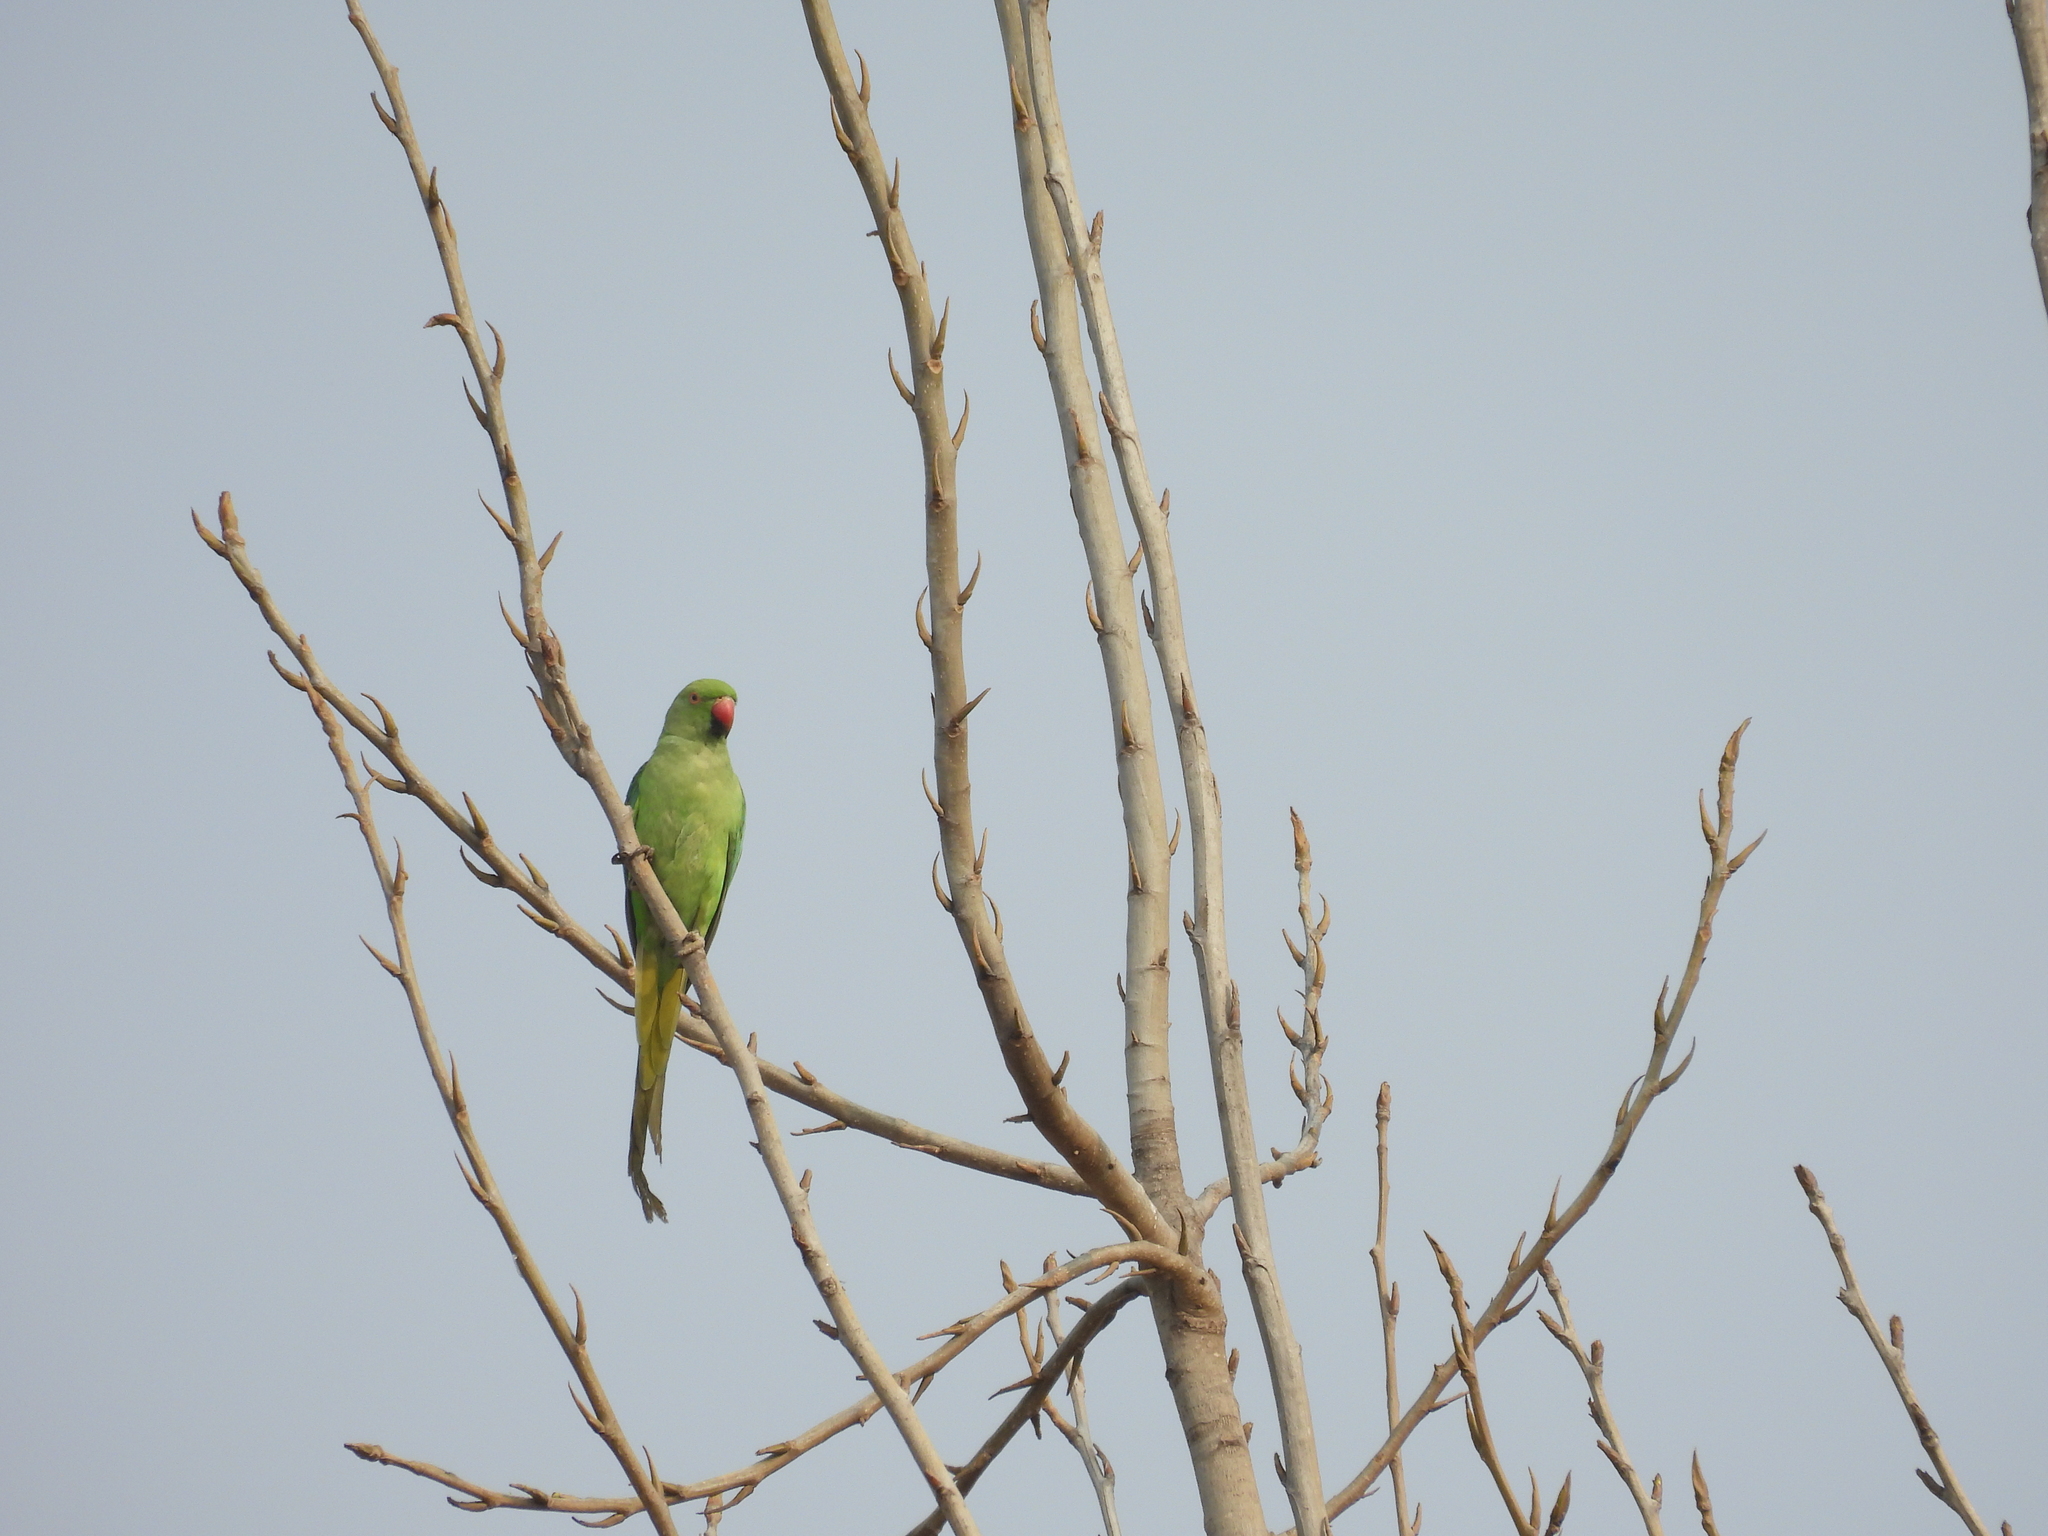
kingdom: Animalia
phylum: Chordata
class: Aves
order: Psittaciformes
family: Psittacidae
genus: Psittacula
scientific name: Psittacula krameri
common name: Rose-ringed parakeet
